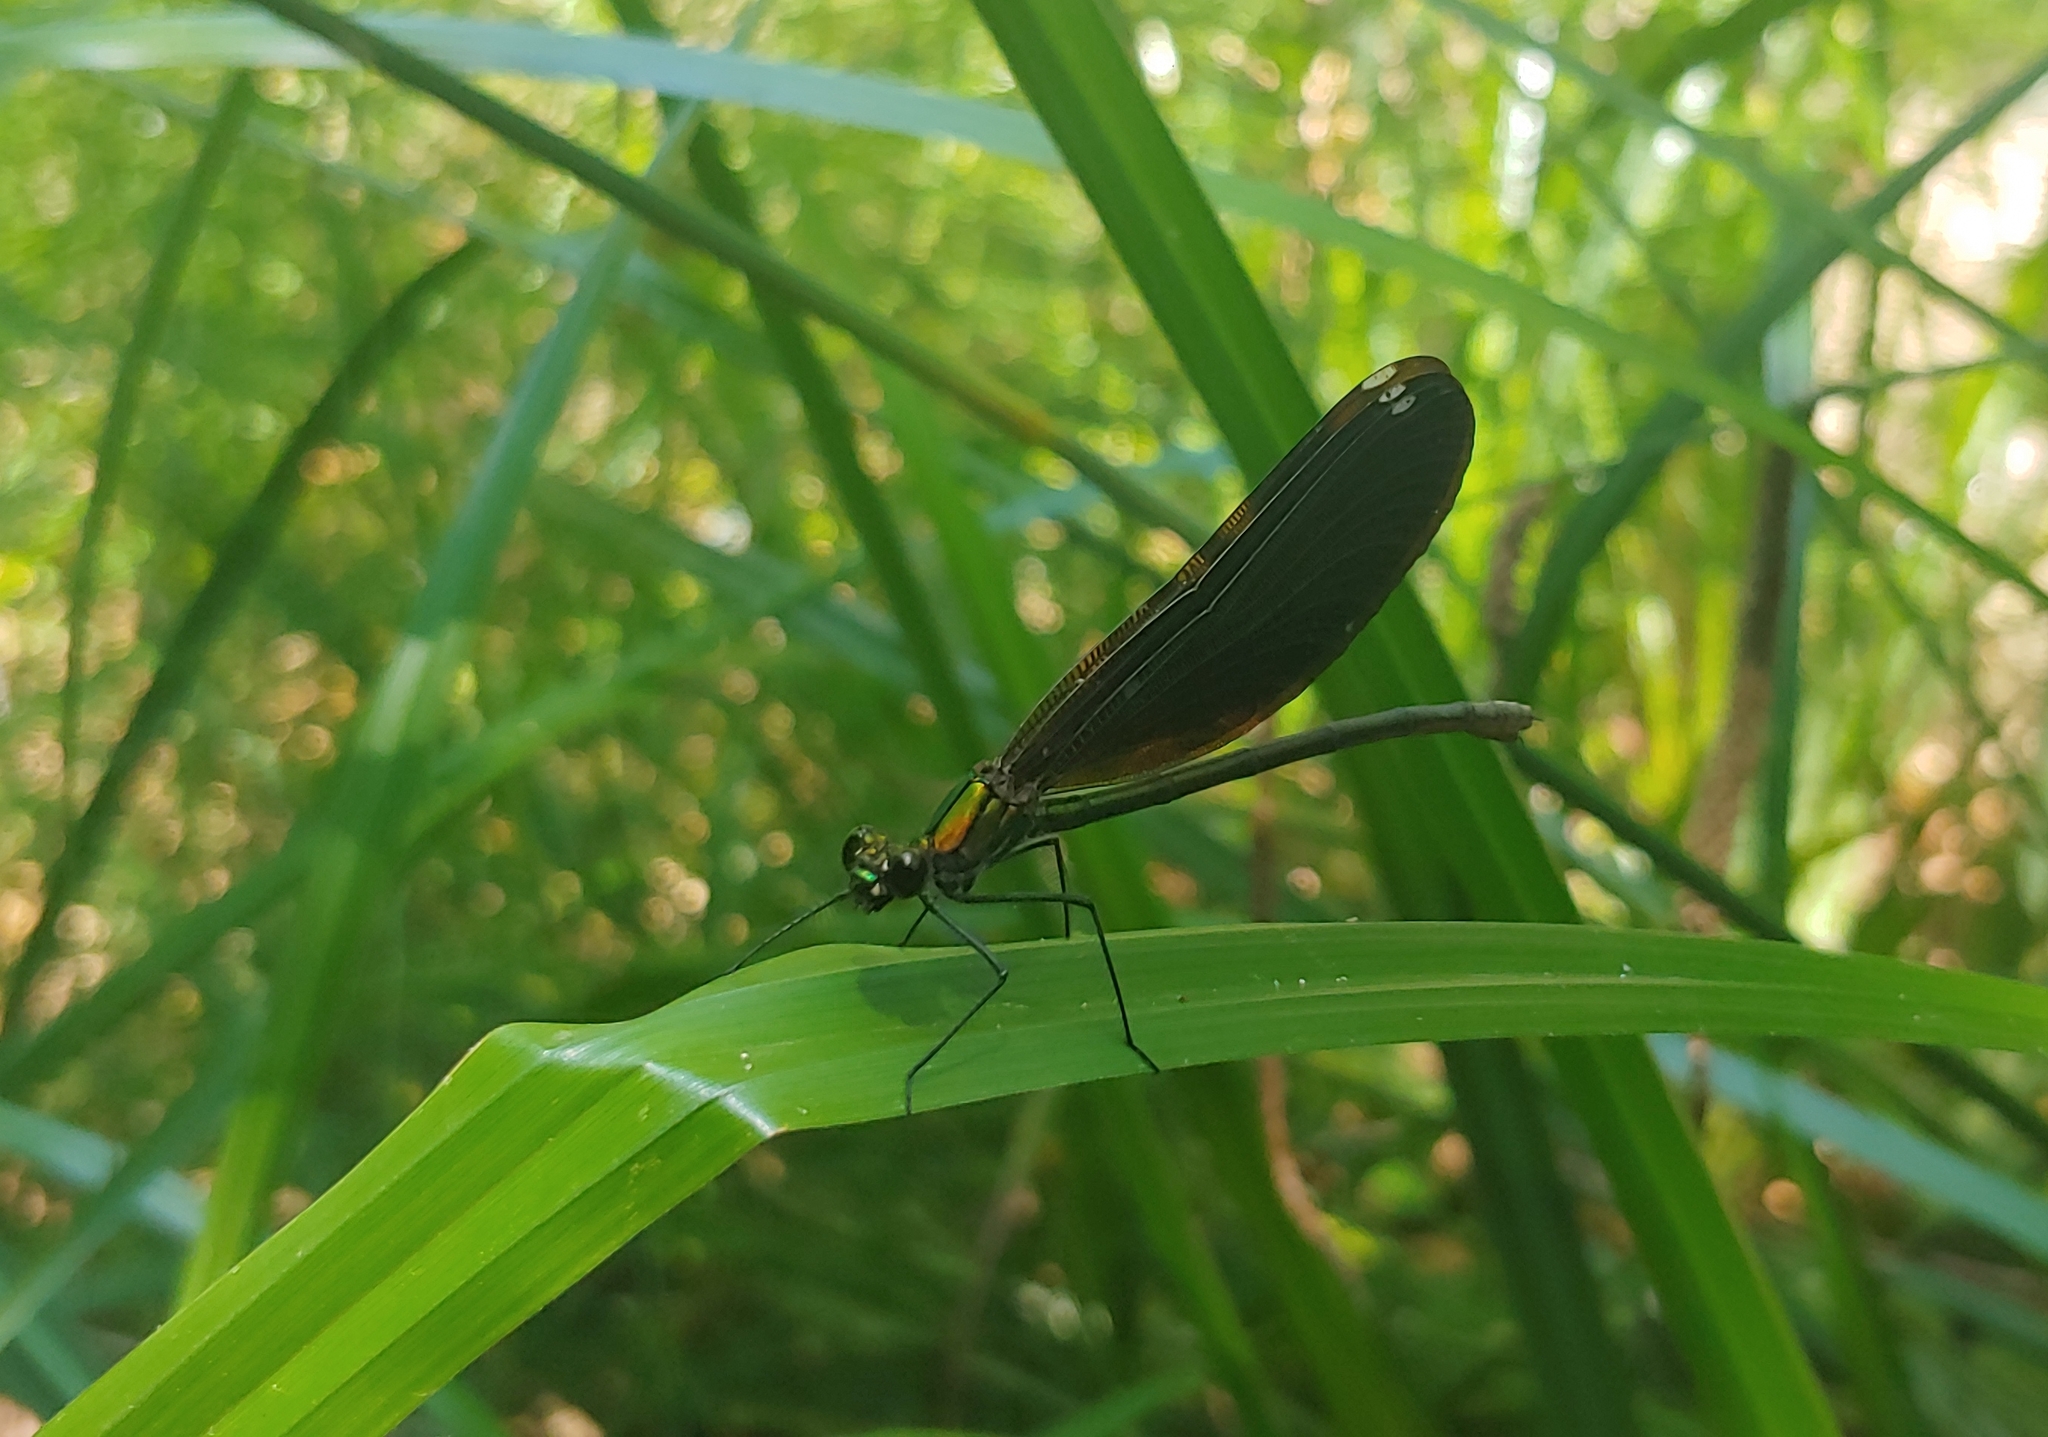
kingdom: Animalia
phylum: Arthropoda
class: Insecta
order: Odonata
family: Calopterygidae
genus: Calopteryx
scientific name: Calopteryx virgo
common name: Beautiful demoiselle
